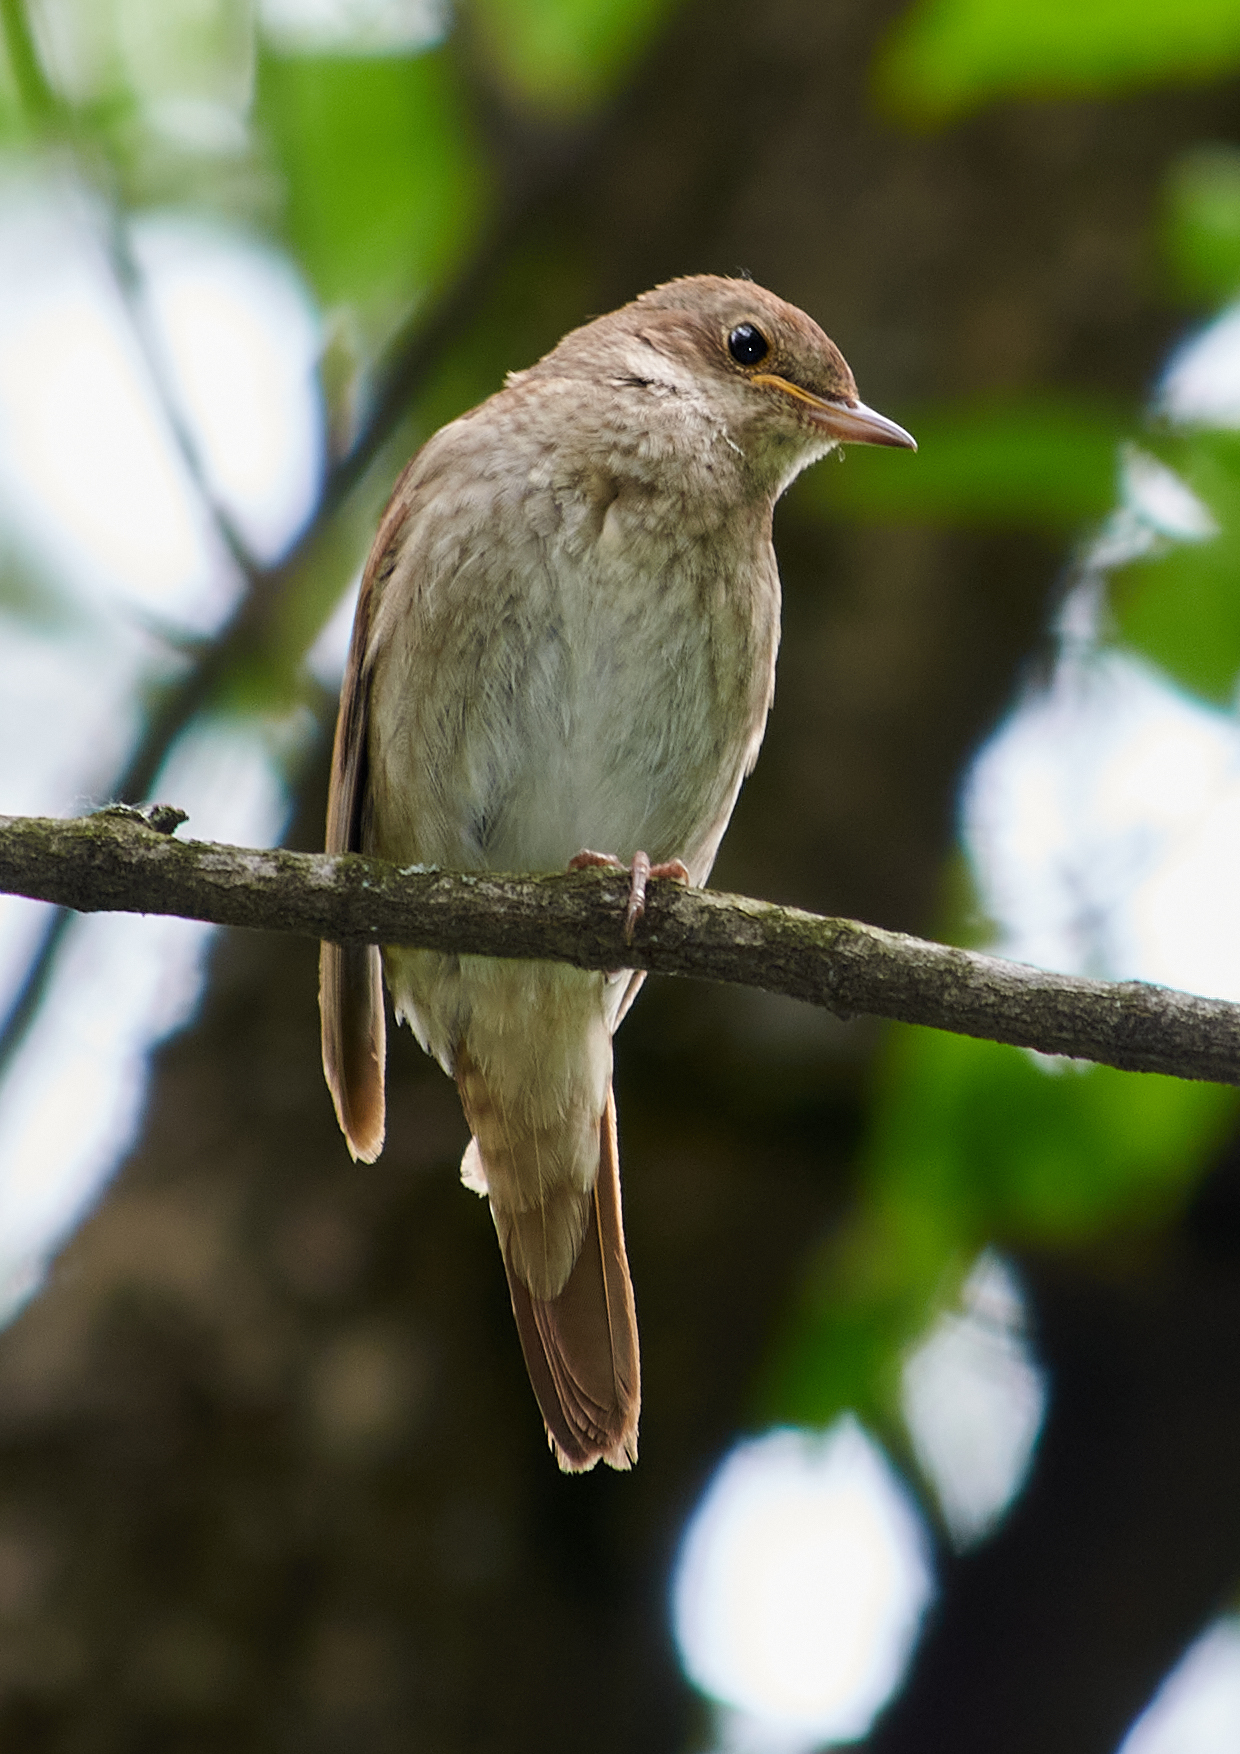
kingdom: Animalia
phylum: Chordata
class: Aves
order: Passeriformes
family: Muscicapidae
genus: Luscinia
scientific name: Luscinia luscinia
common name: Thrush nightingale
